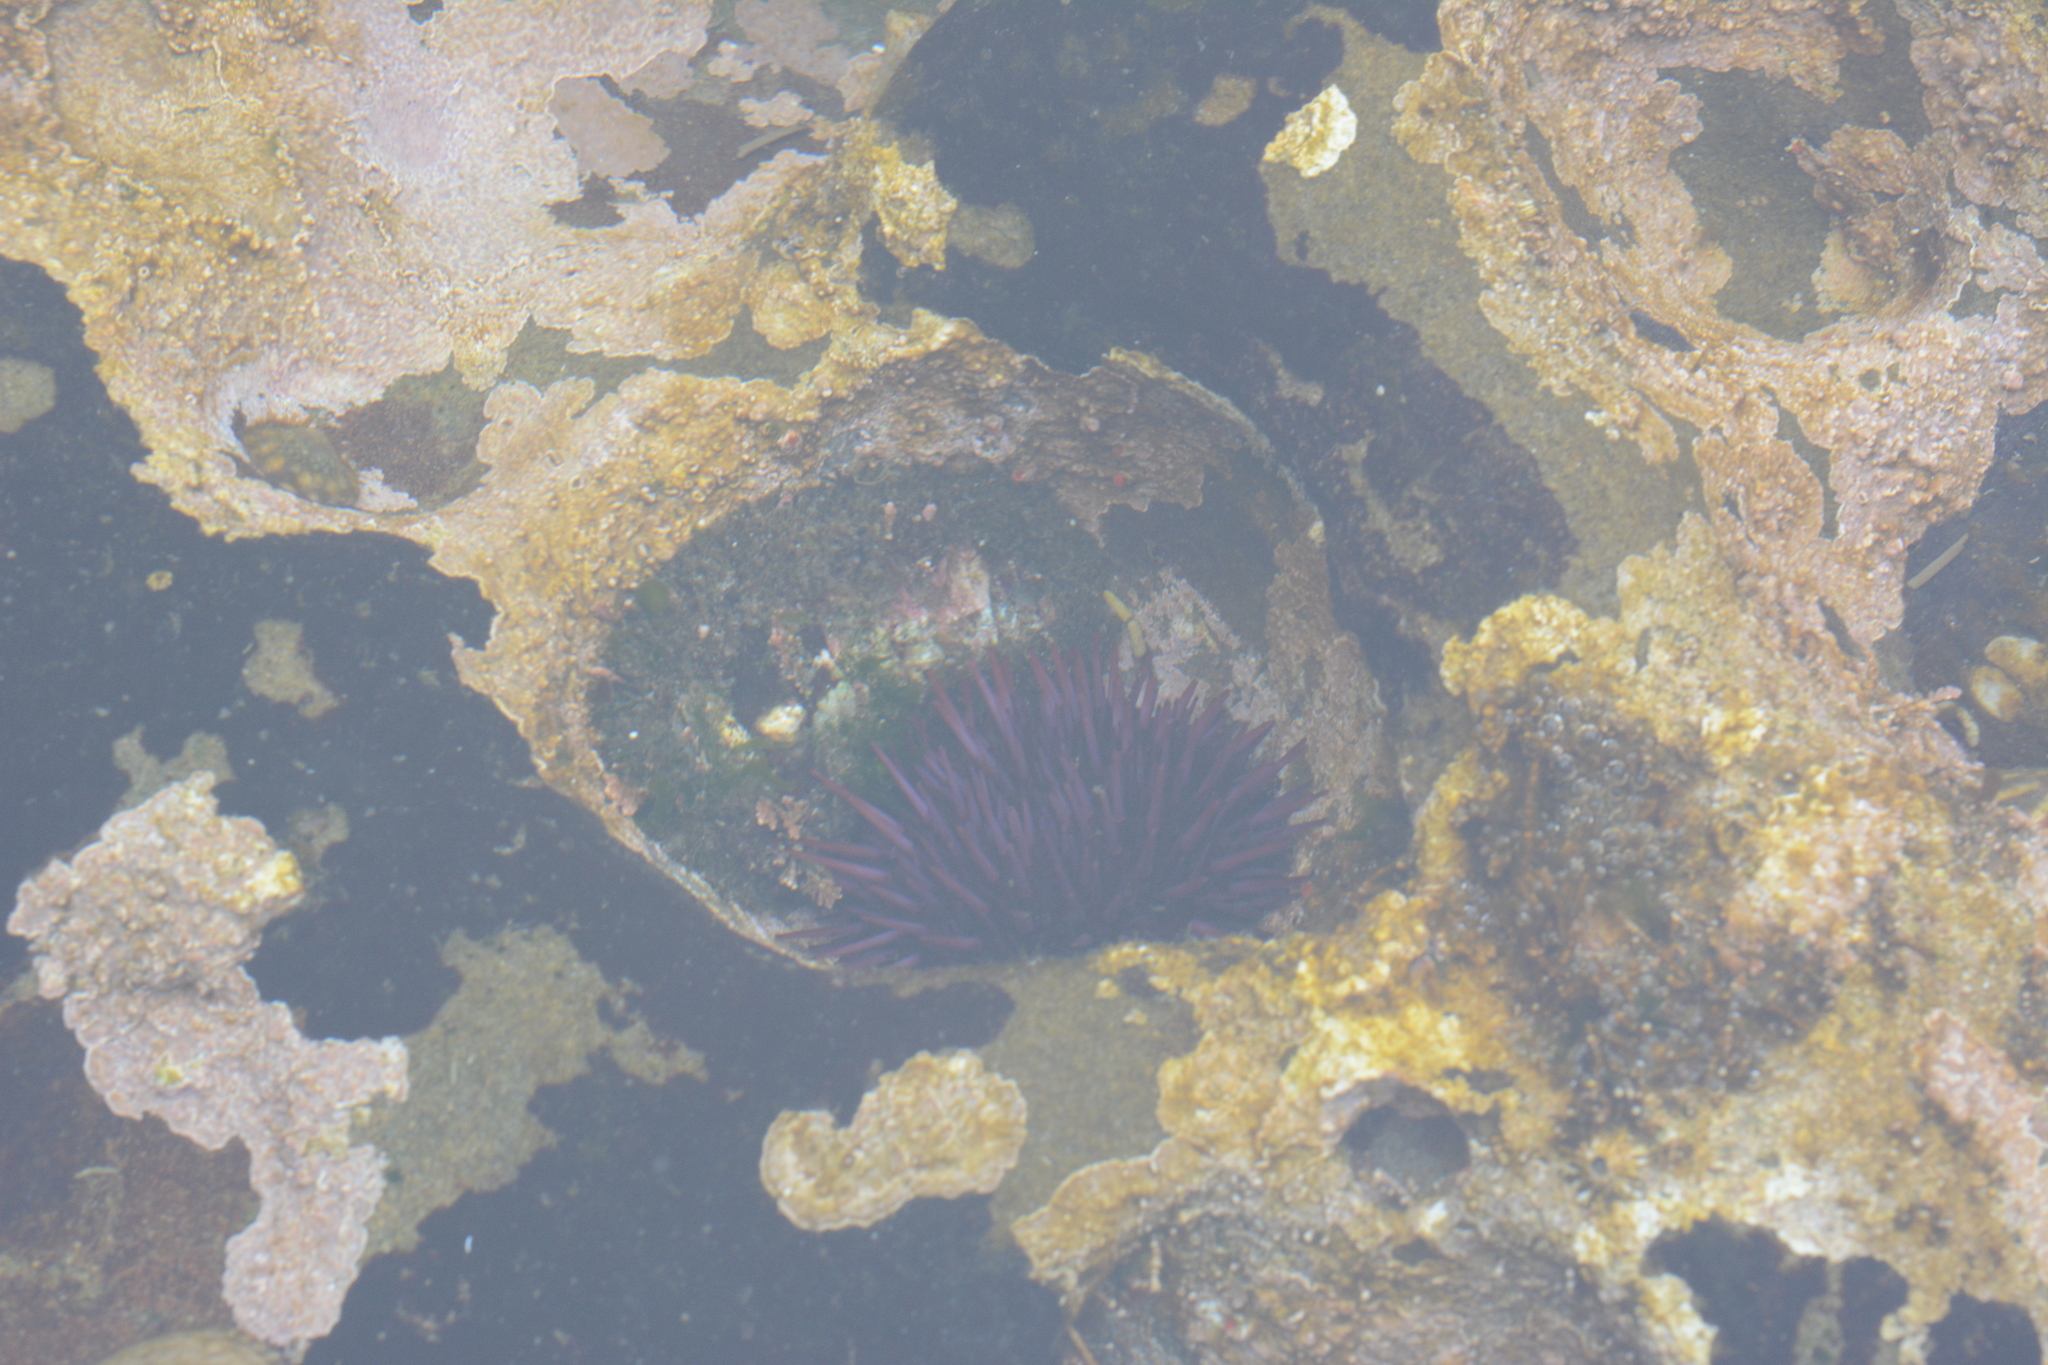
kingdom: Animalia
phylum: Echinodermata
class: Echinoidea
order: Camarodonta
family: Strongylocentrotidae
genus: Strongylocentrotus
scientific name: Strongylocentrotus purpuratus
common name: Purple sea urchin
